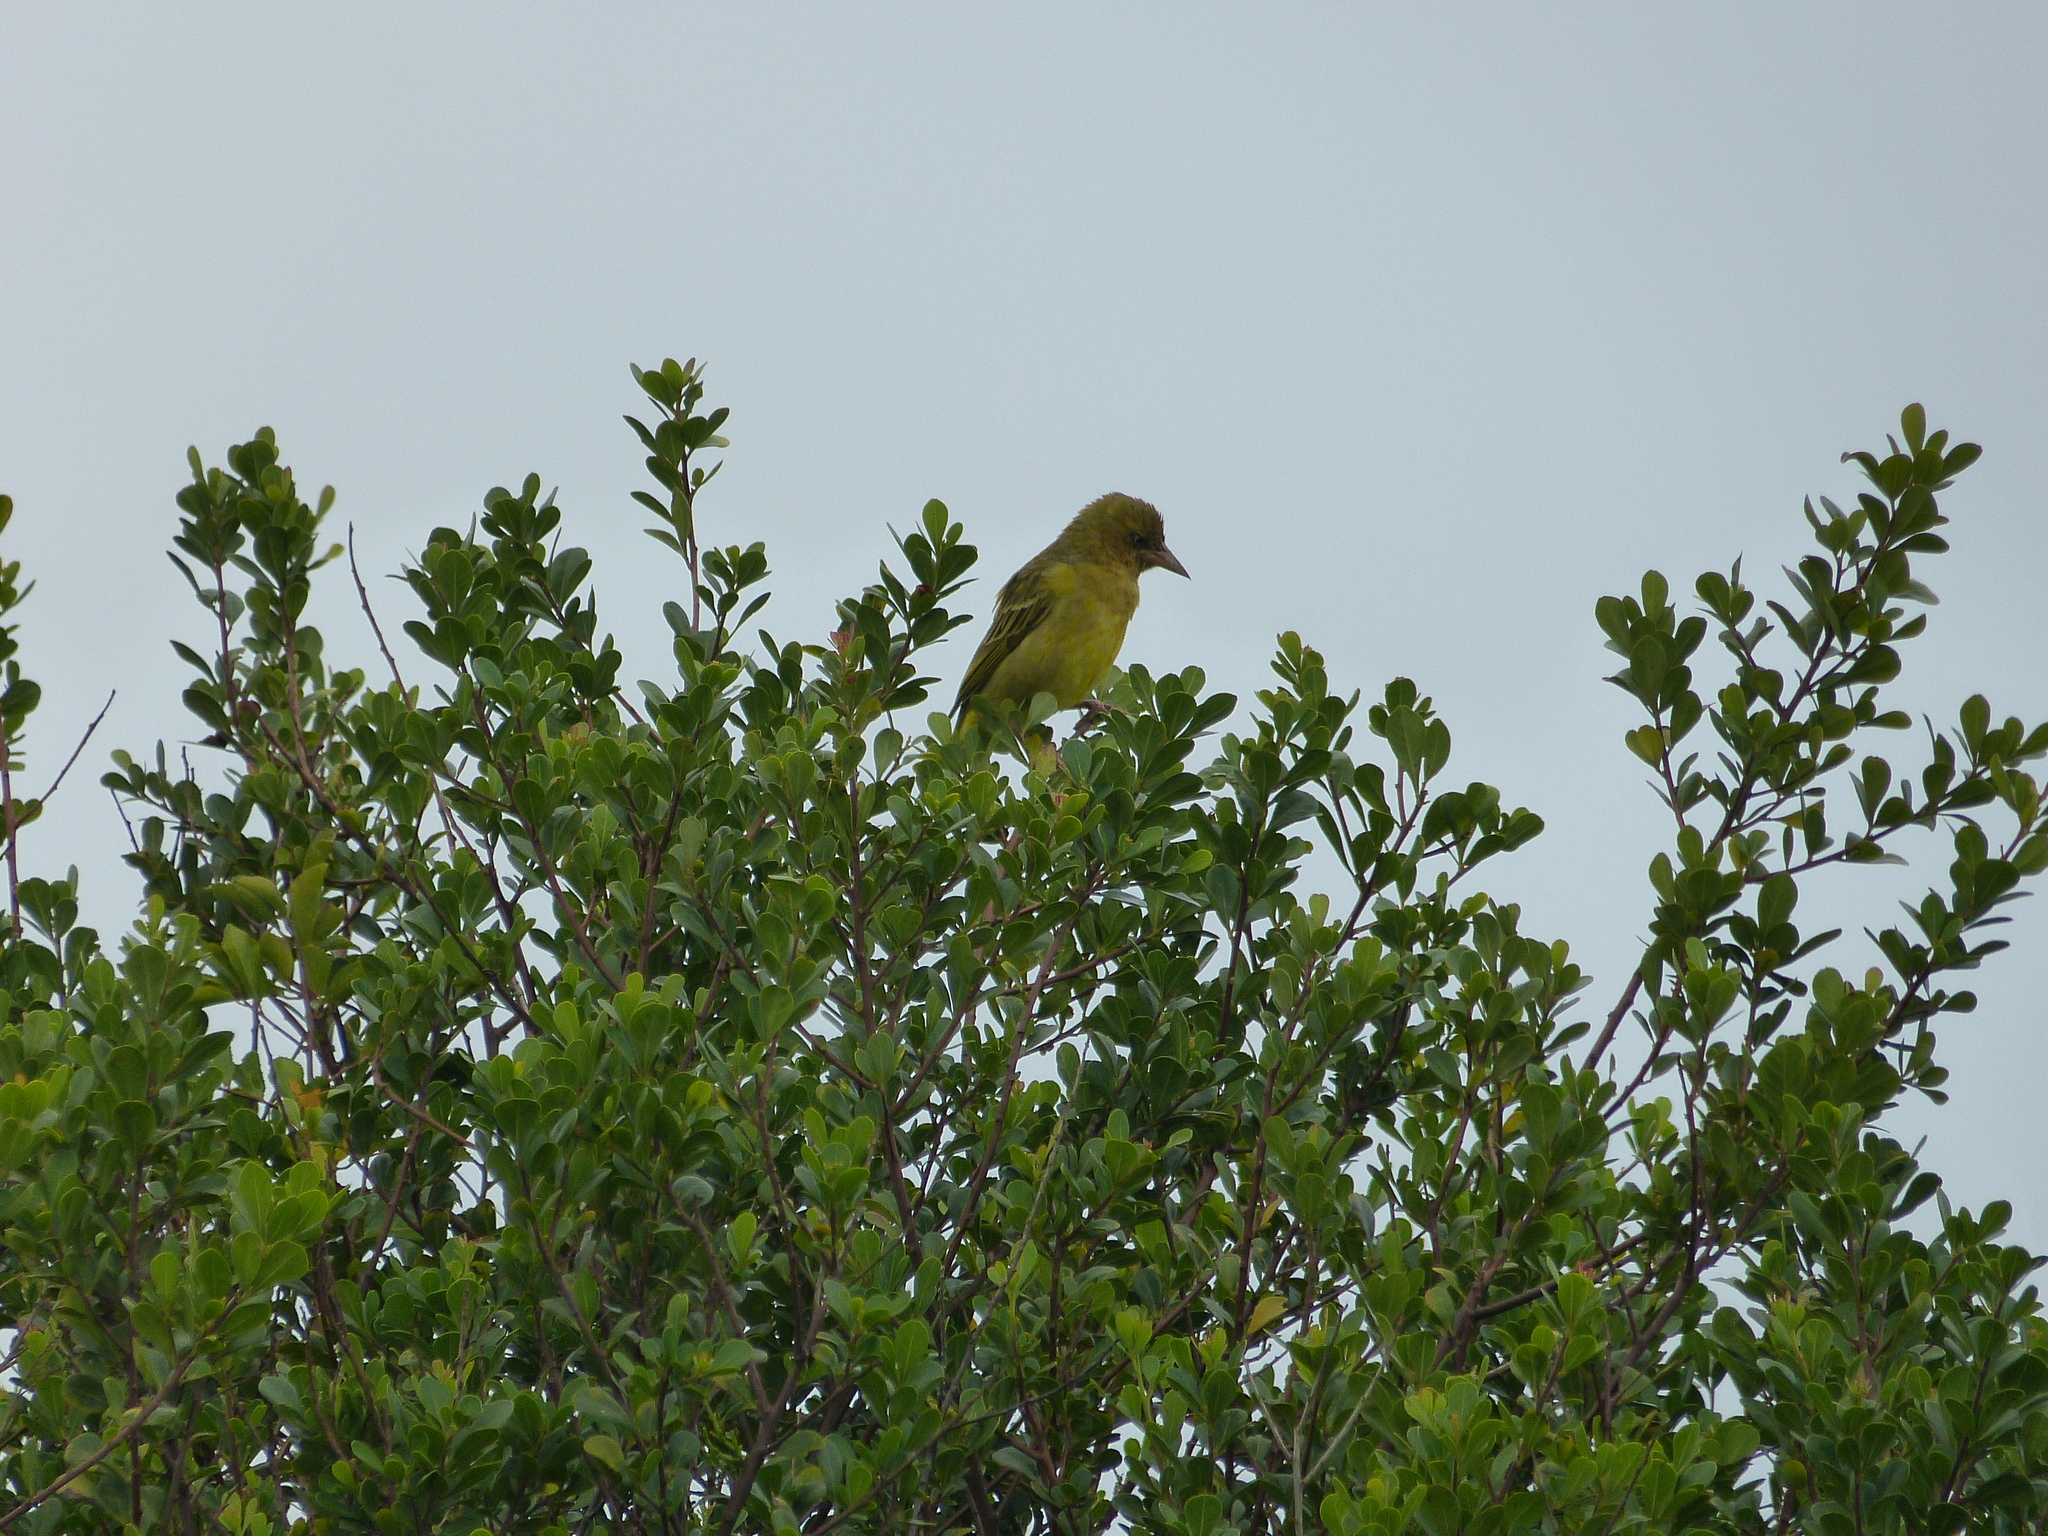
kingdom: Animalia
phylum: Chordata
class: Aves
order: Passeriformes
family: Ploceidae
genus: Ploceus
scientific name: Ploceus capensis
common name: Cape weaver
